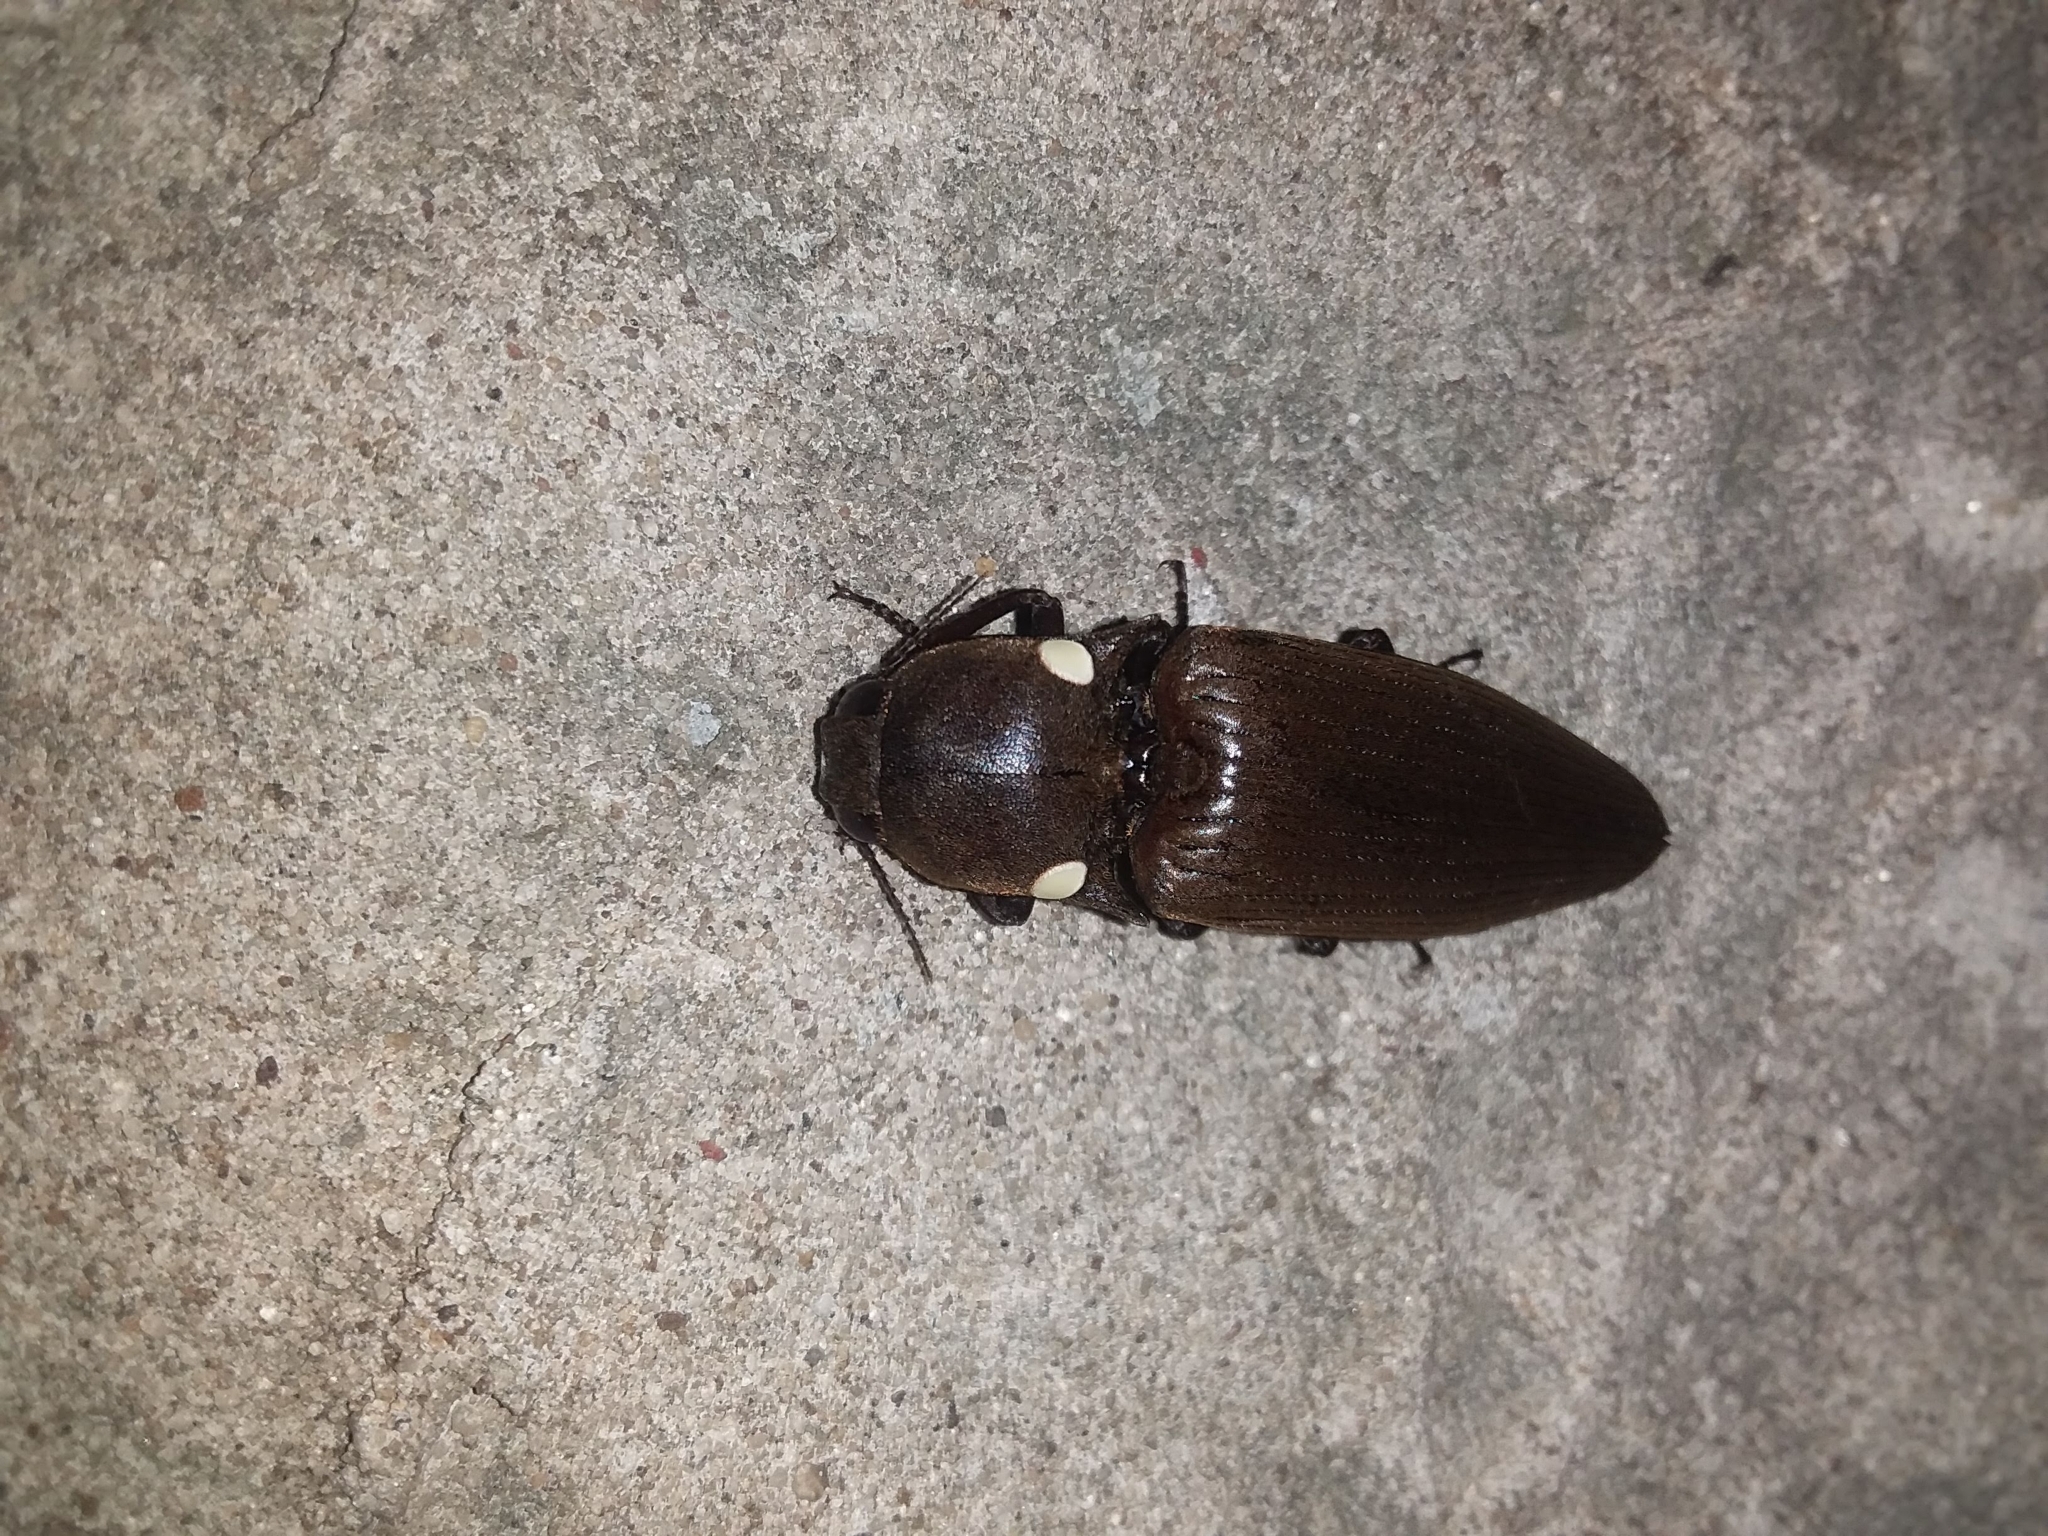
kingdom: Animalia
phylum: Arthropoda
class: Insecta
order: Coleoptera
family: Elateridae
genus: Pyrophorus
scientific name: Pyrophorus
